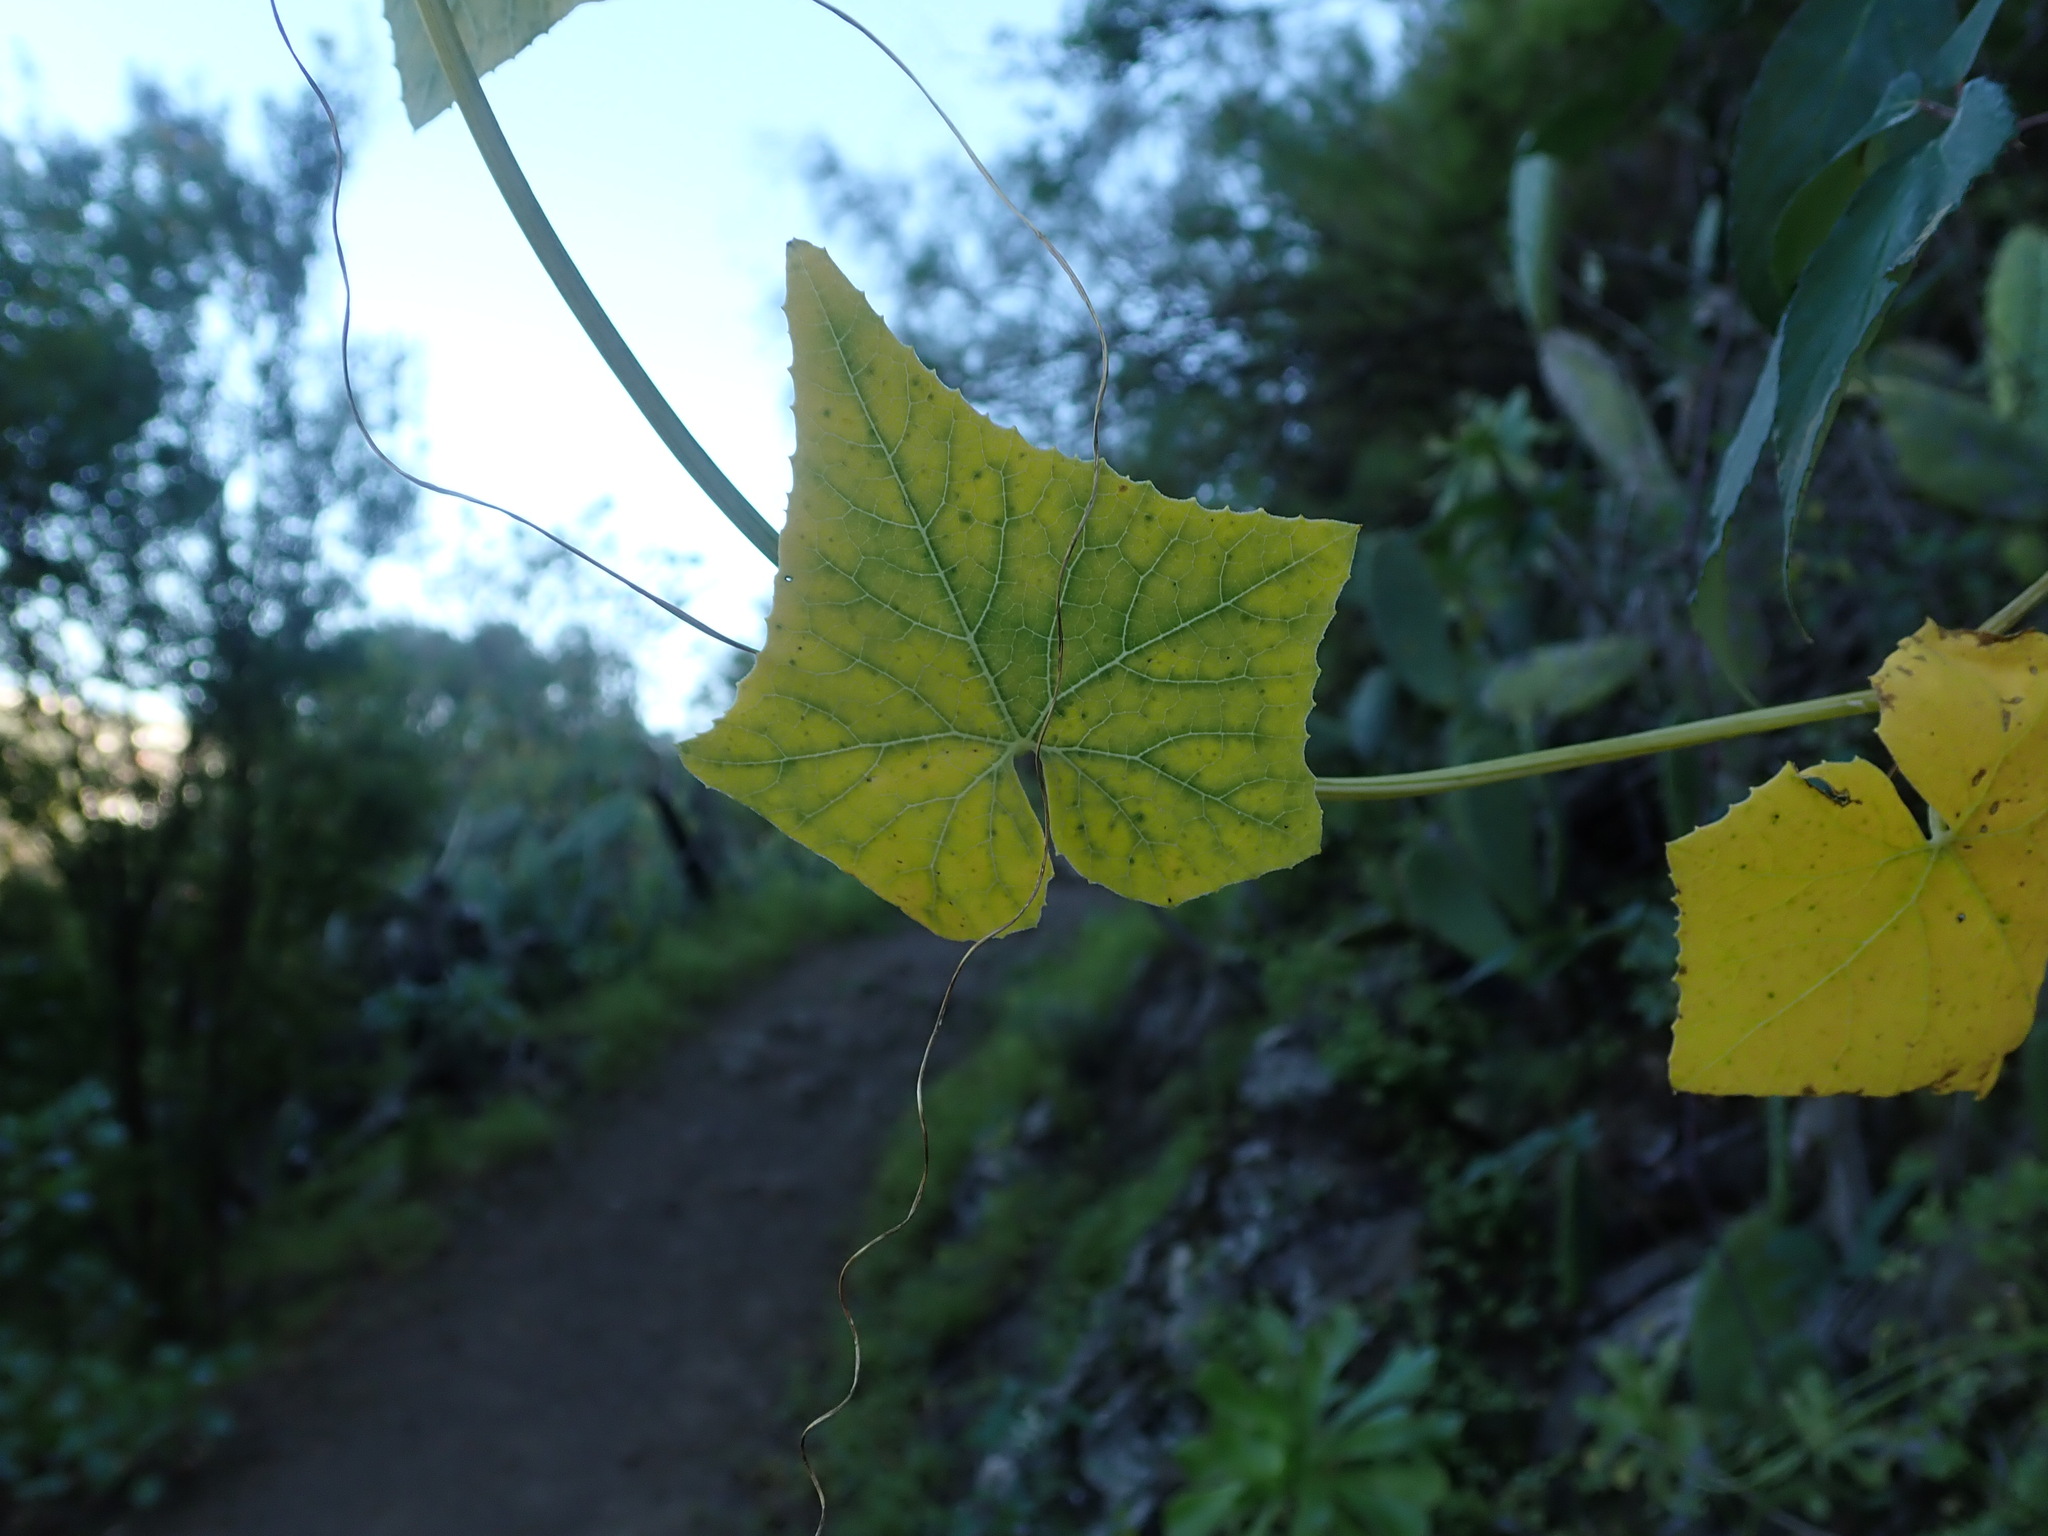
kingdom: Plantae
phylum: Tracheophyta
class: Magnoliopsida
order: Cucurbitales
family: Cucurbitaceae
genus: Bryonia
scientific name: Bryonia verrucosa
